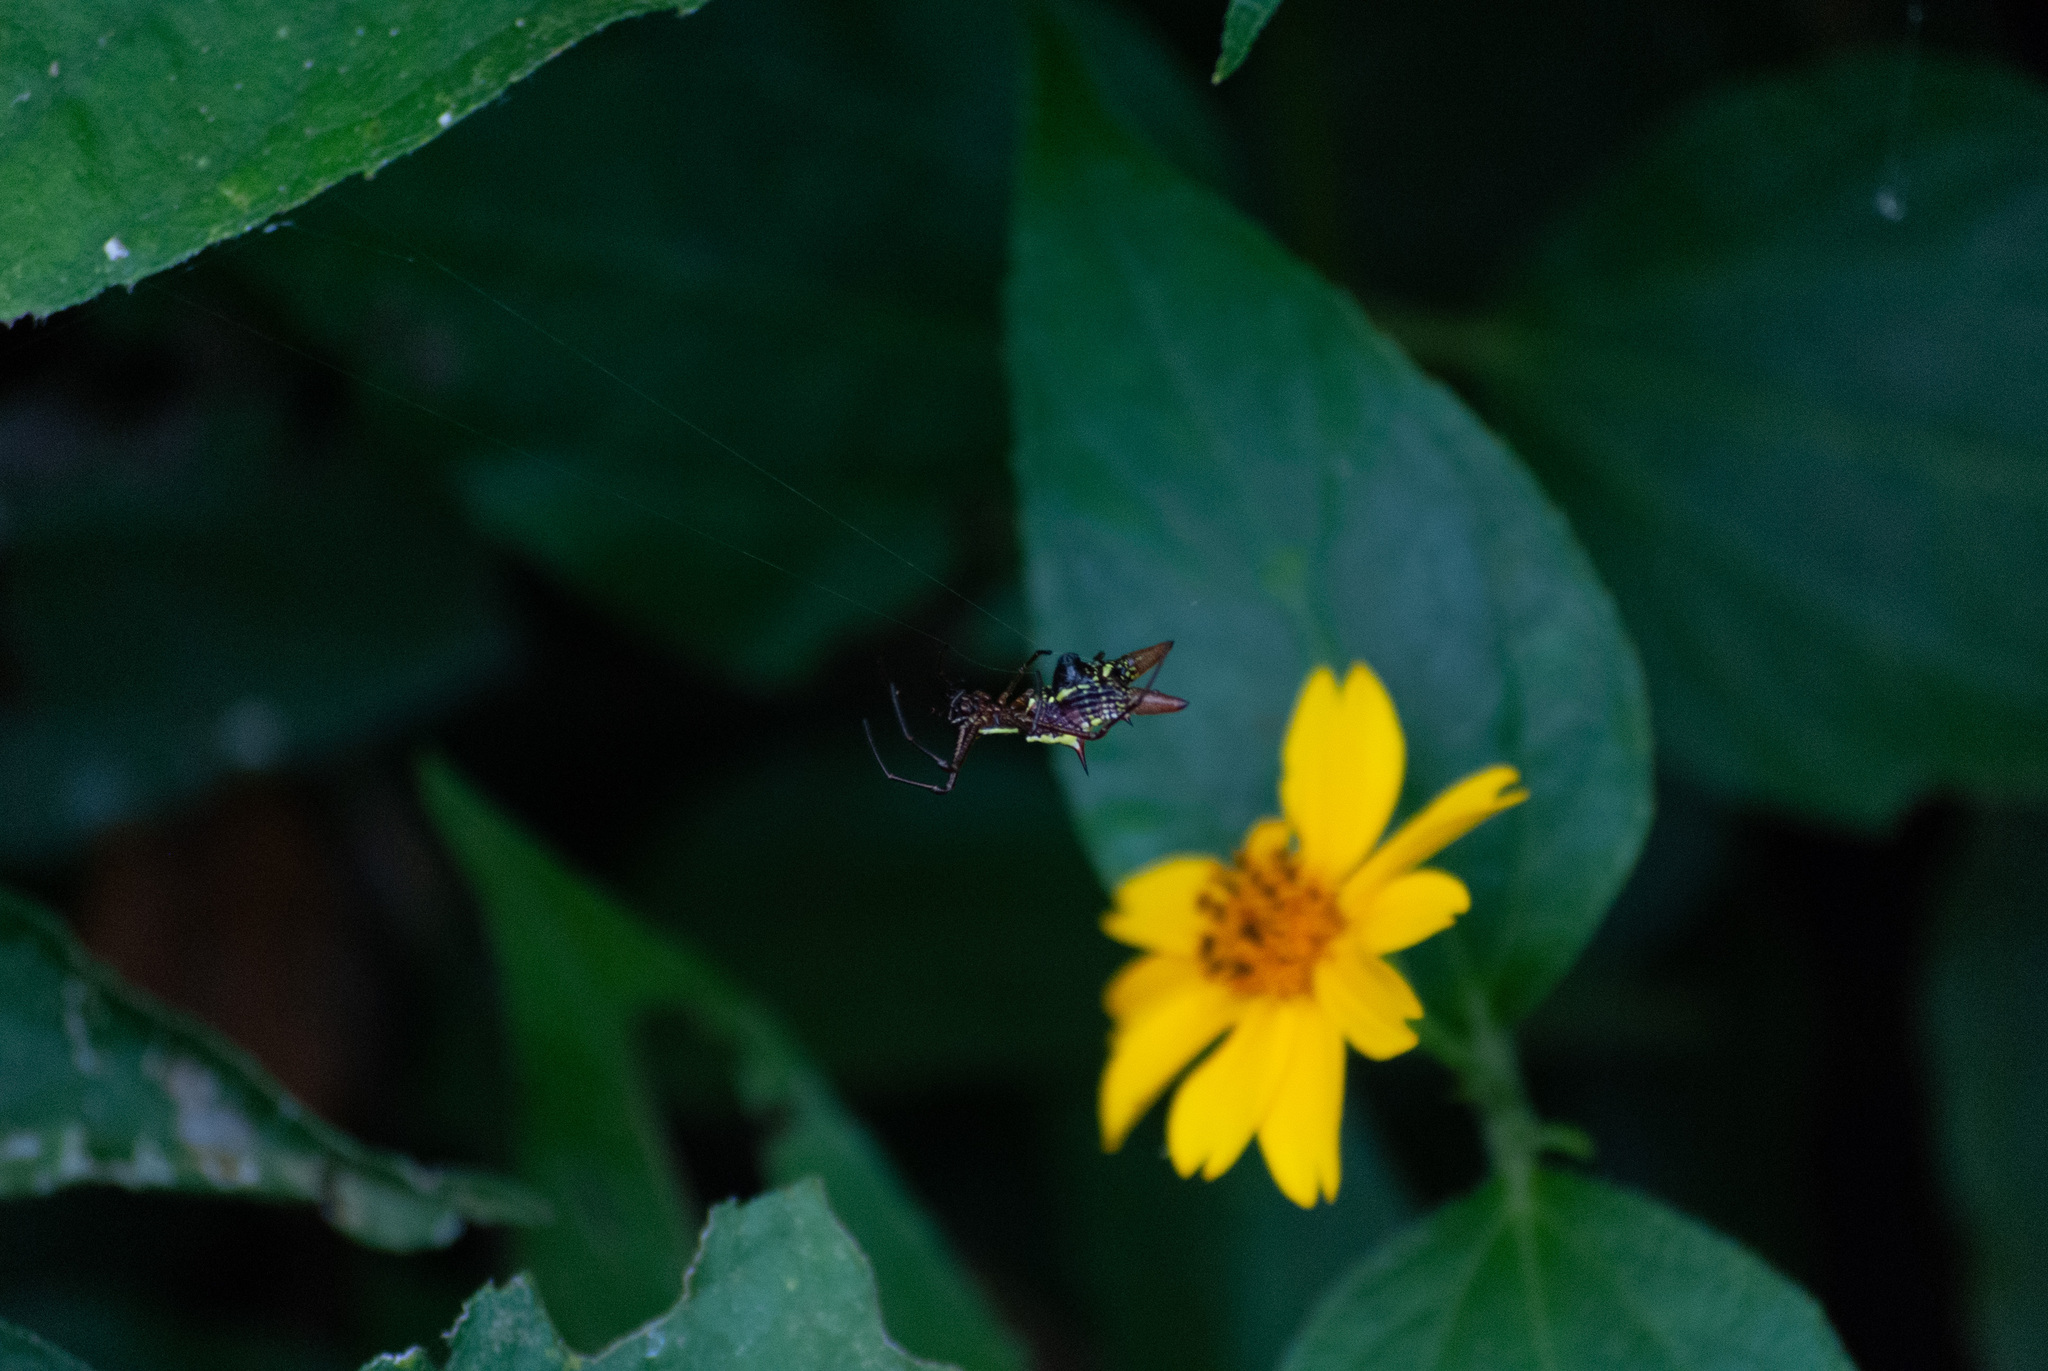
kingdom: Animalia
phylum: Arthropoda
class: Arachnida
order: Araneae
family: Araneidae
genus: Micrathena
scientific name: Micrathena sexspinosa
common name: Orb weavers
